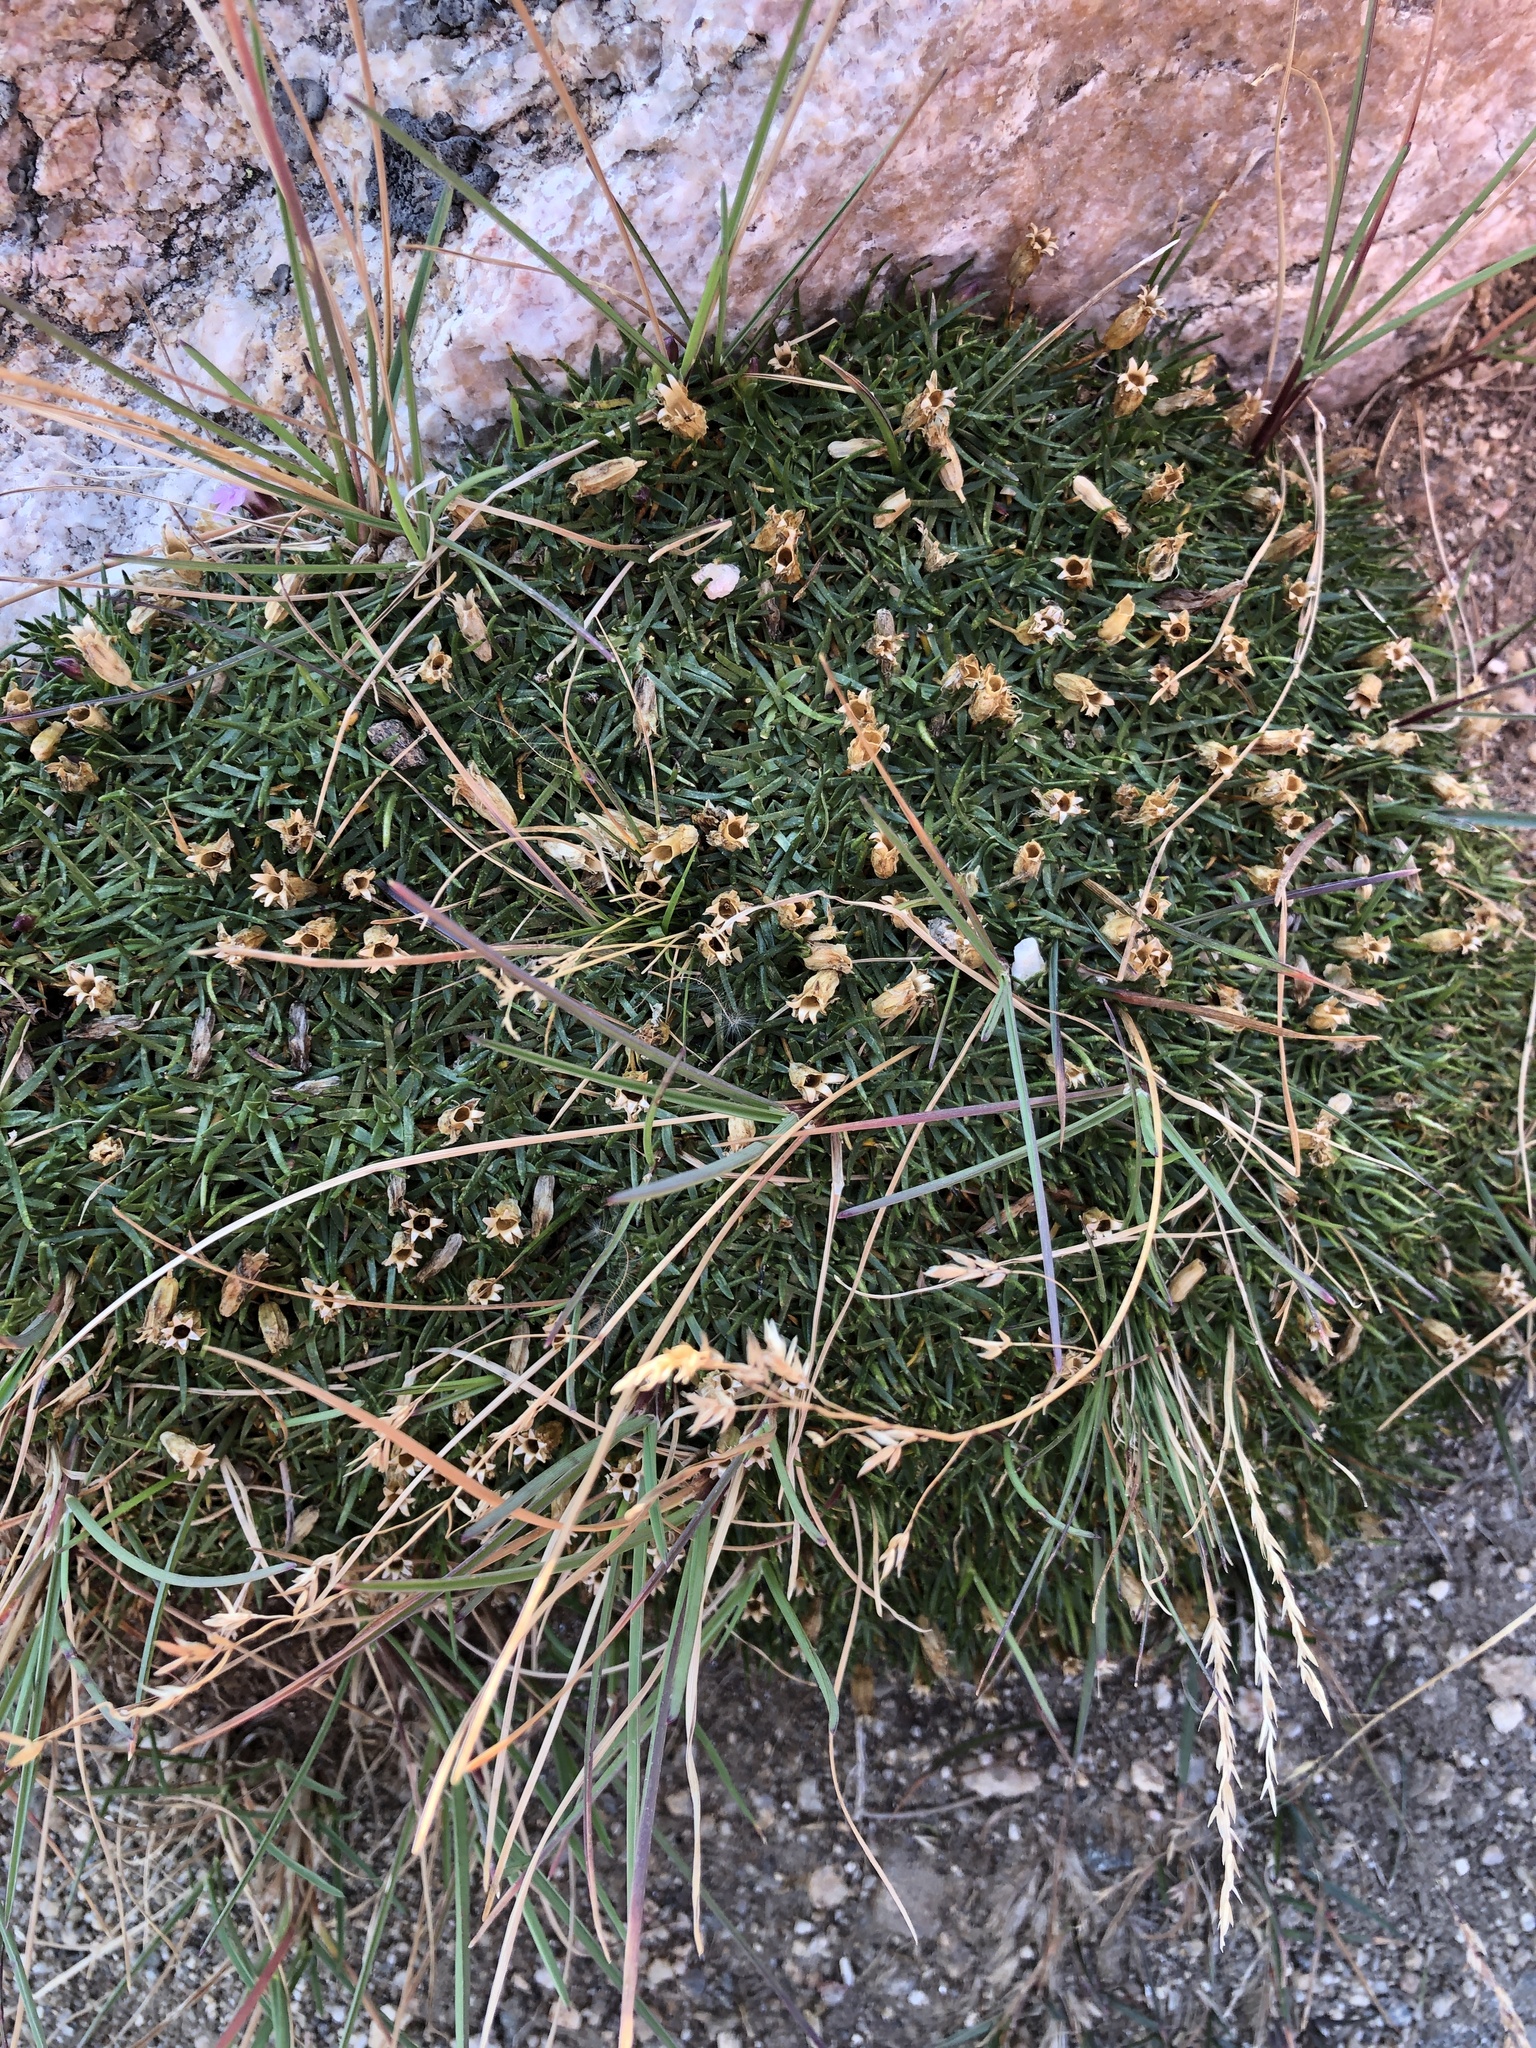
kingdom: Plantae
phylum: Tracheophyta
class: Magnoliopsida
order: Caryophyllales
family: Caryophyllaceae
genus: Silene
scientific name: Silene acaulis
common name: Moss campion
